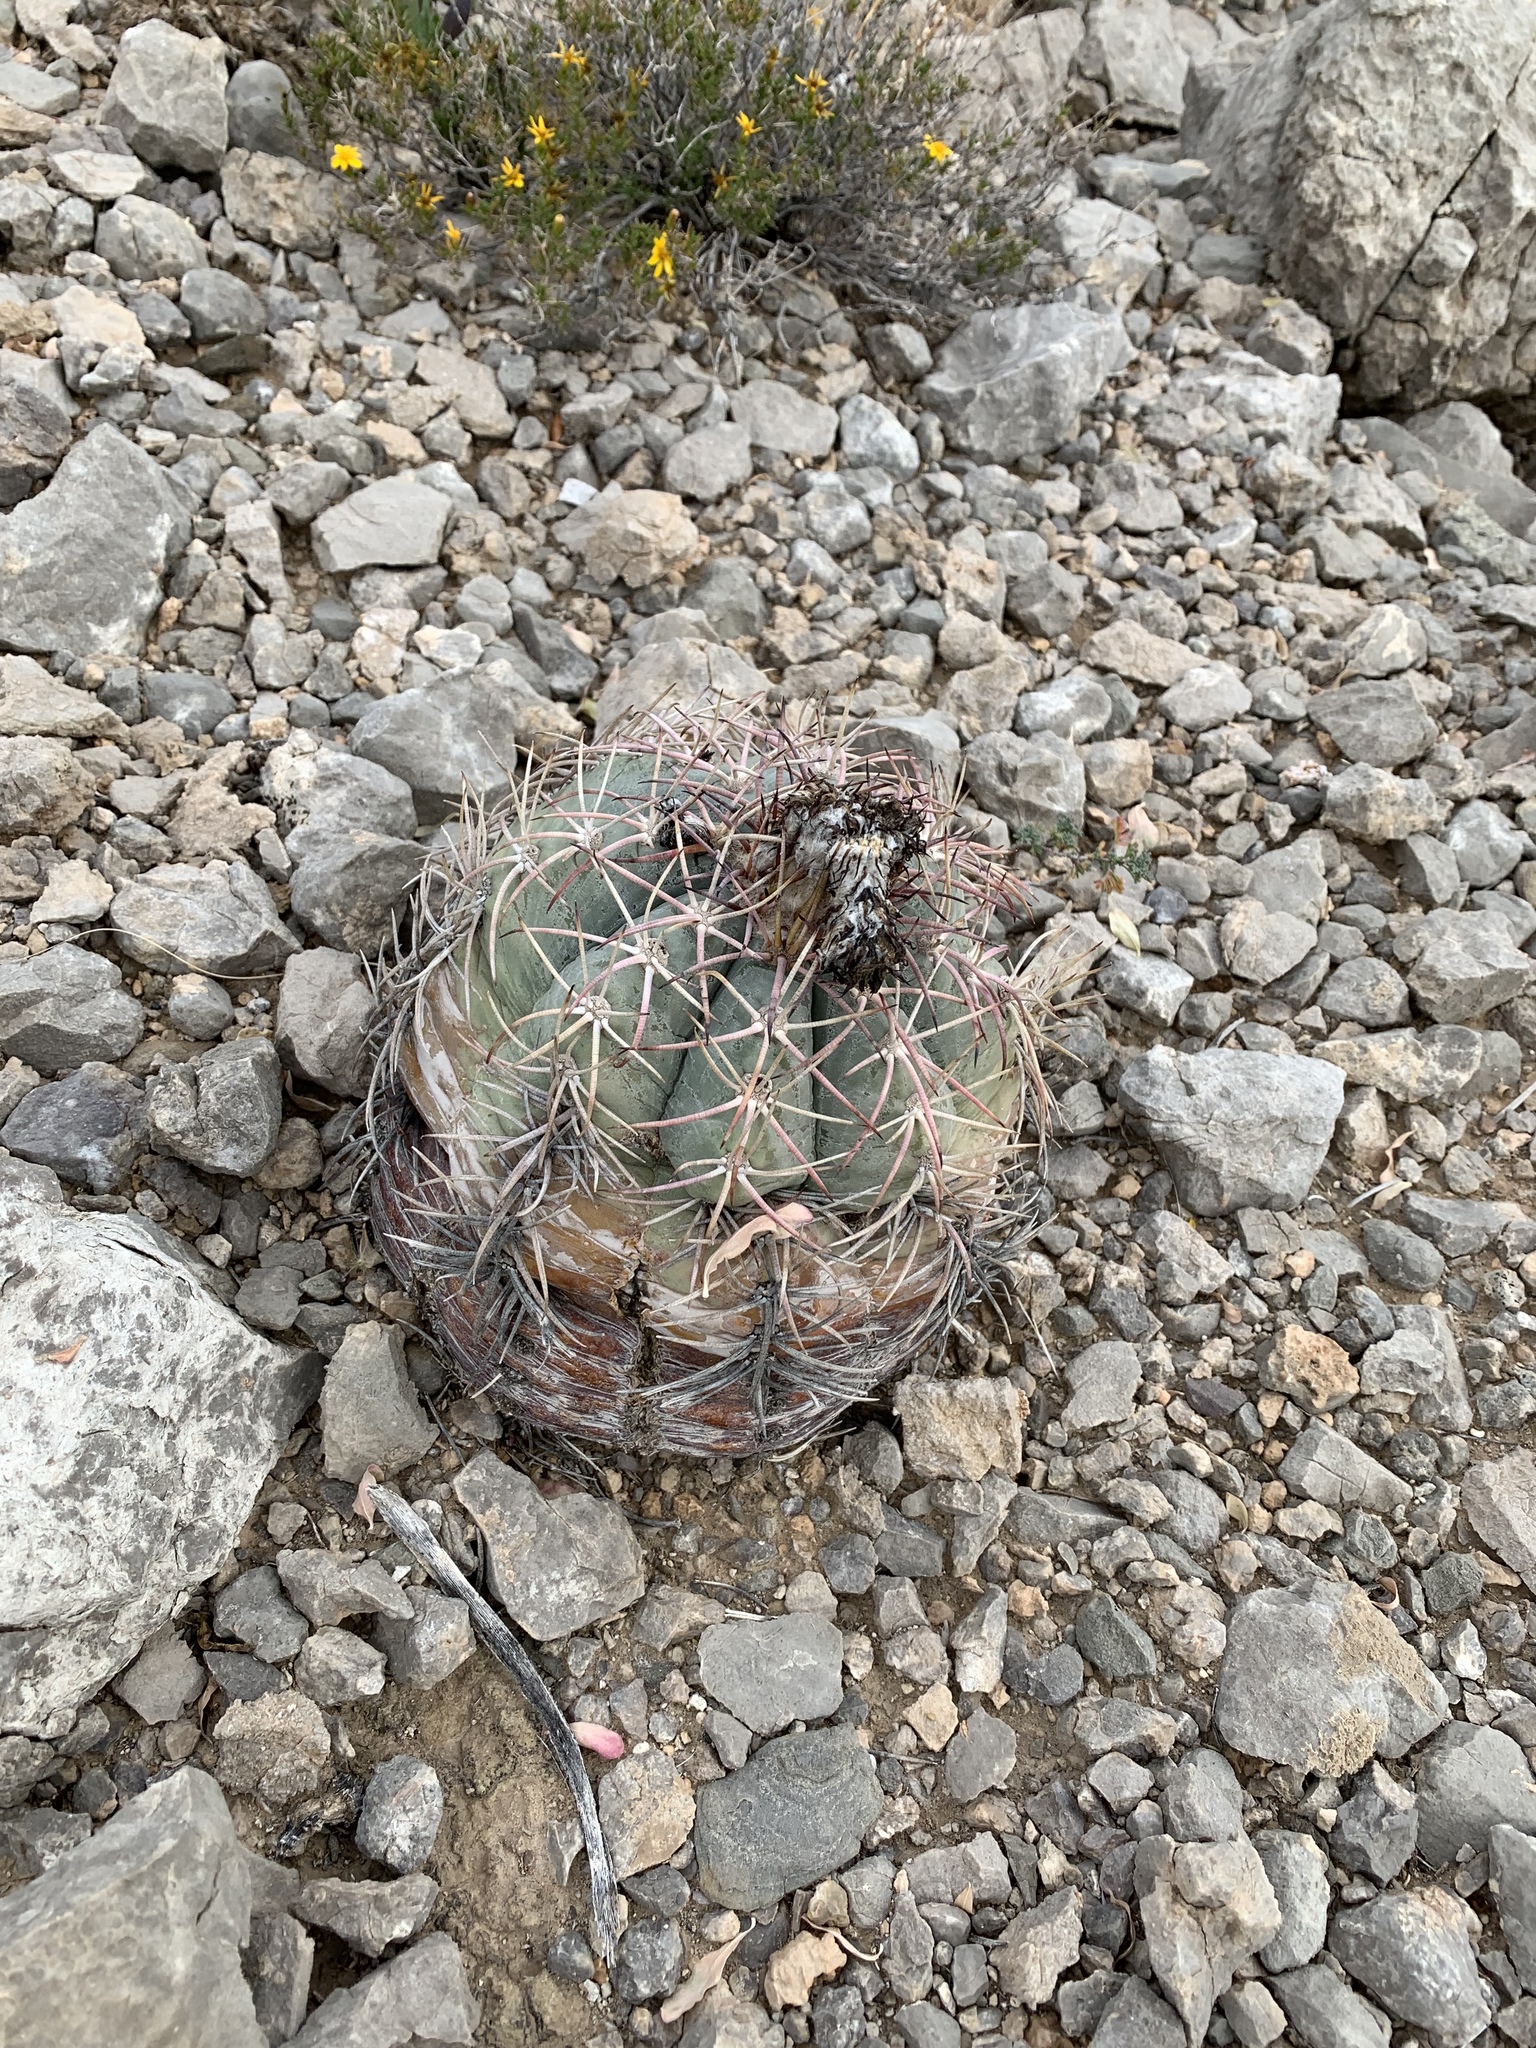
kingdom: Plantae
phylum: Tracheophyta
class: Magnoliopsida
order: Caryophyllales
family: Cactaceae
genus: Echinocactus
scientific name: Echinocactus horizonthalonius
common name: Devilshead
